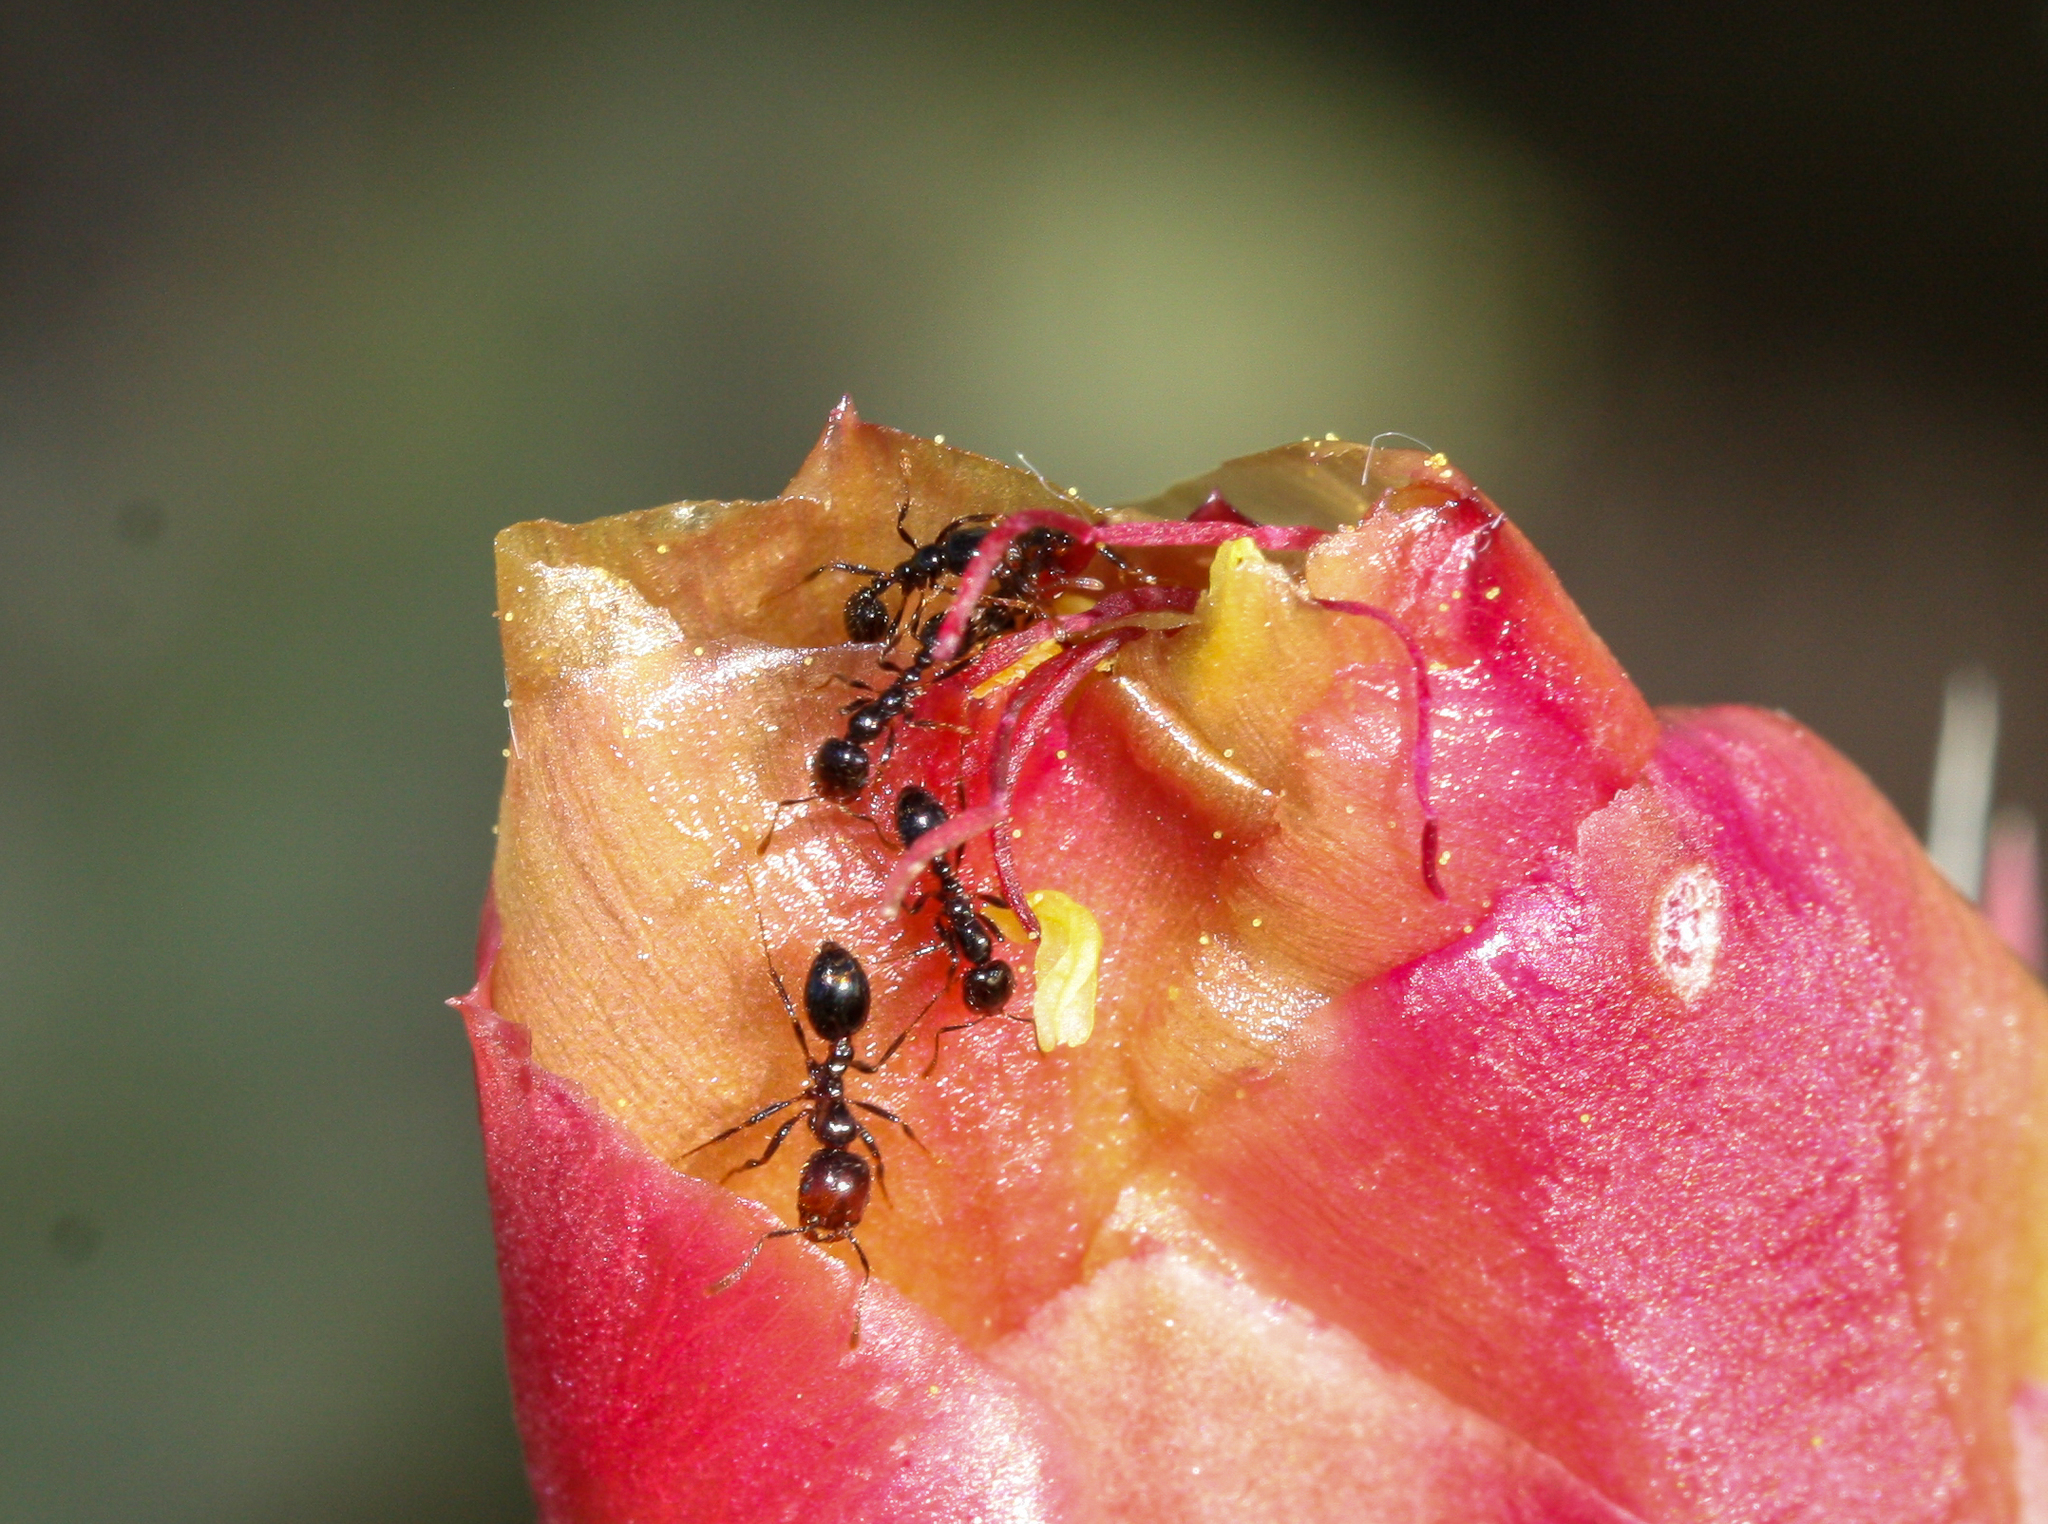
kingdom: Animalia
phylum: Arthropoda
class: Insecta
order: Hymenoptera
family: Formicidae
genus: Solenopsis
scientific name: Solenopsis xyloni
